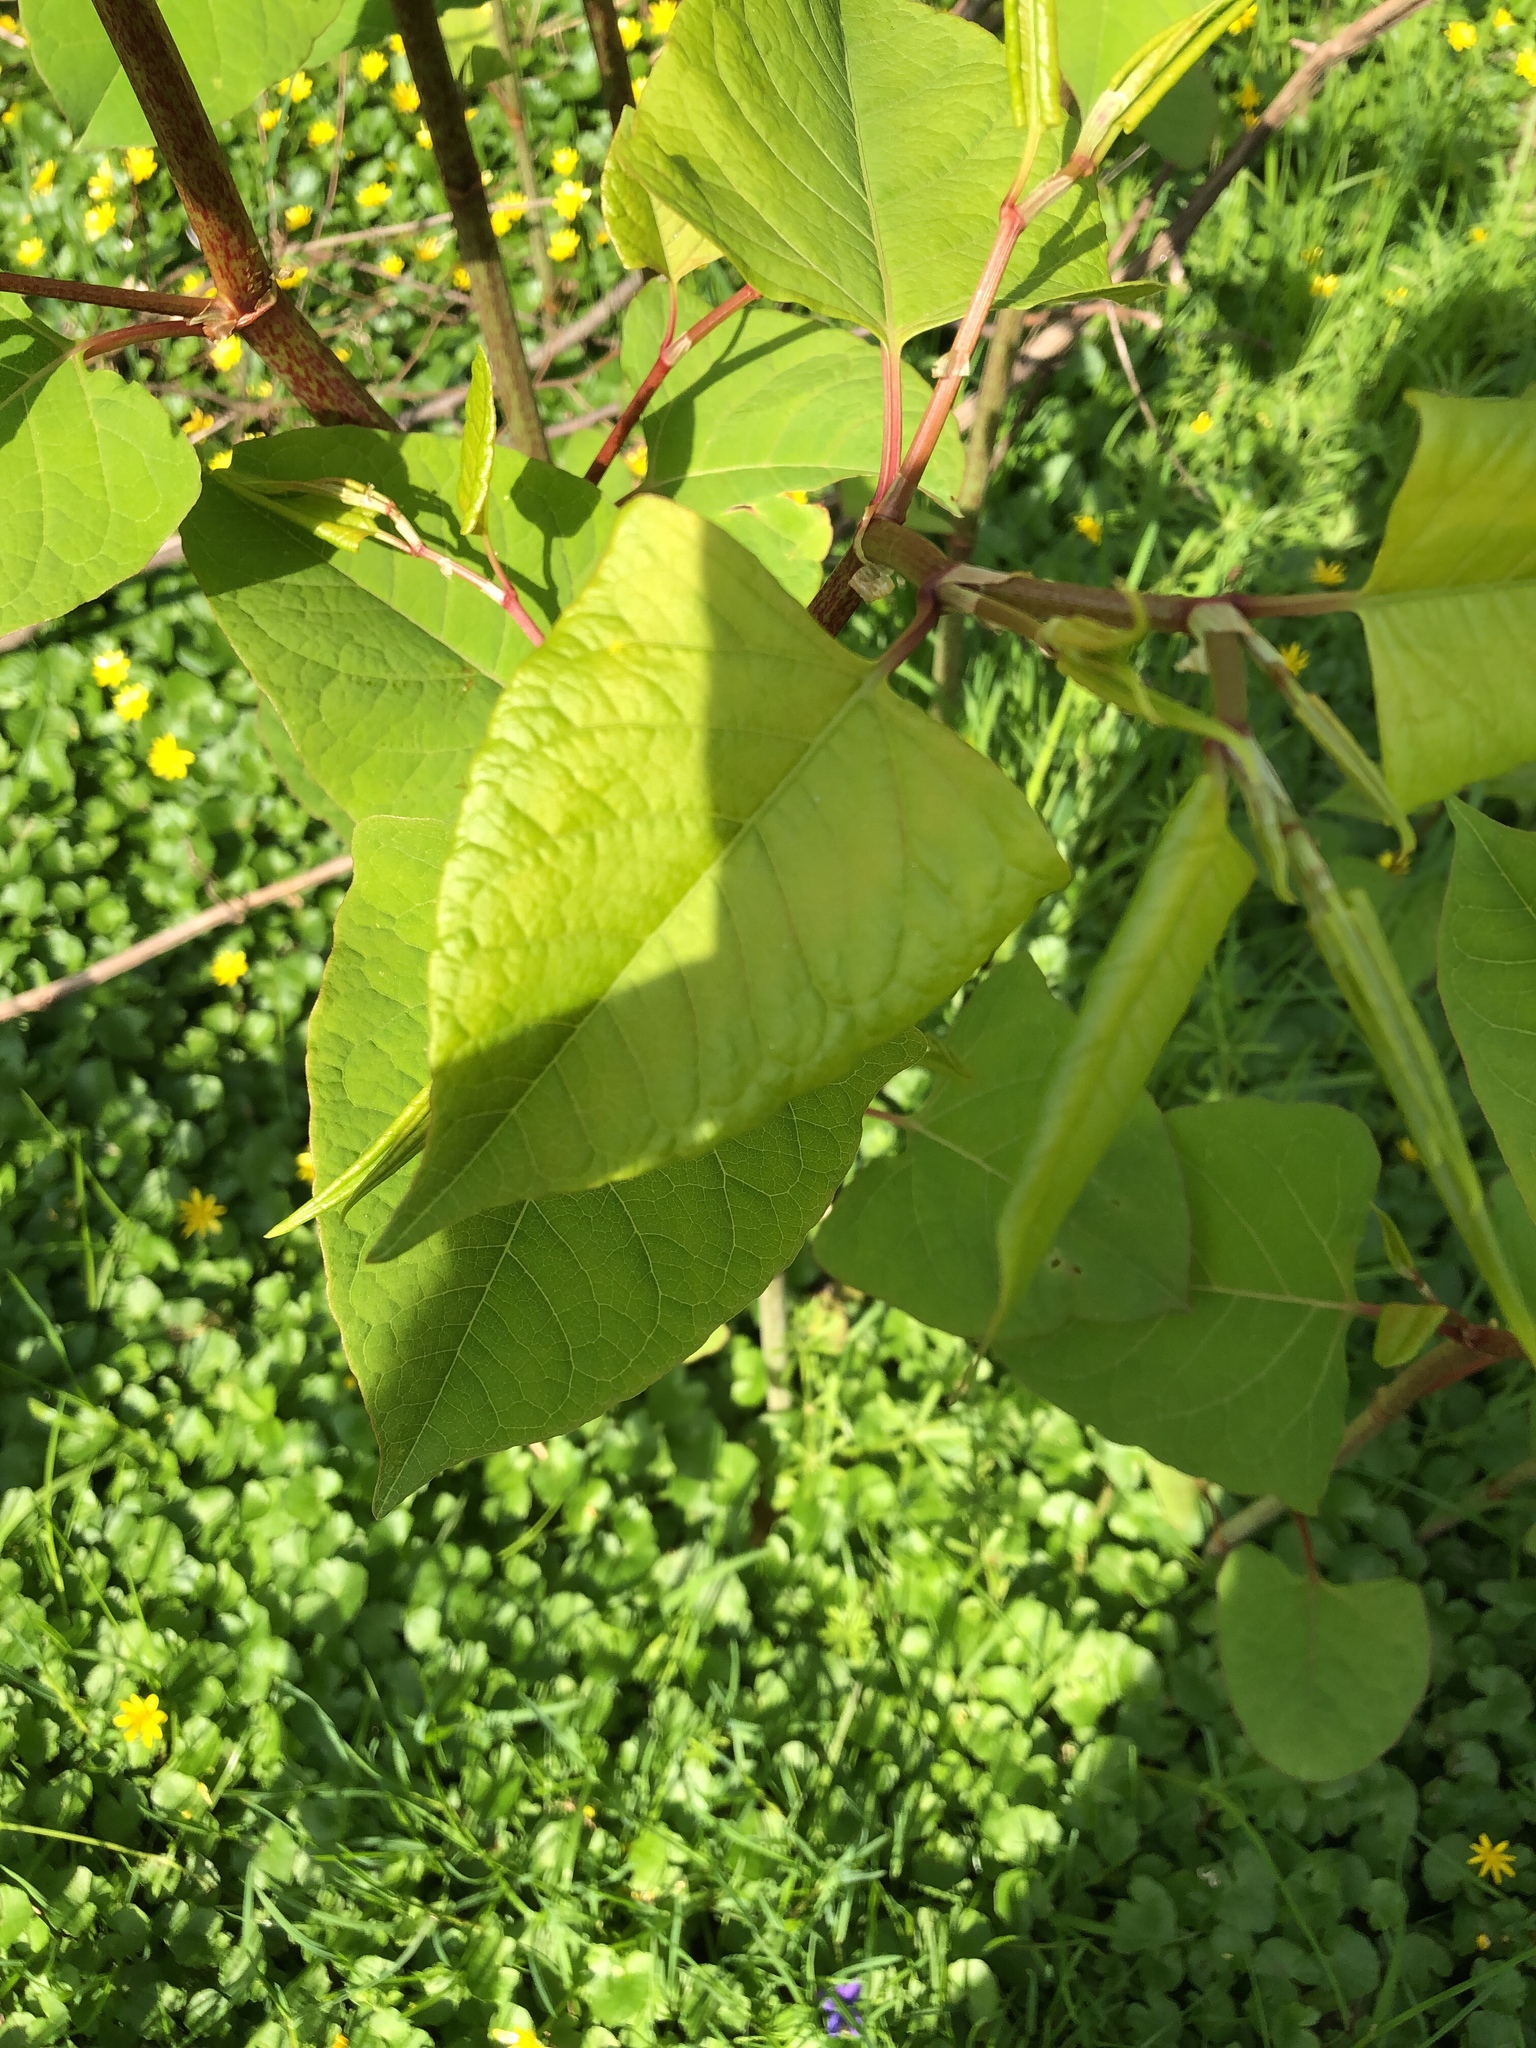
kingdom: Plantae
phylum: Tracheophyta
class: Magnoliopsida
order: Caryophyllales
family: Polygonaceae
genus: Reynoutria
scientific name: Reynoutria japonica
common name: Japanese knotweed
